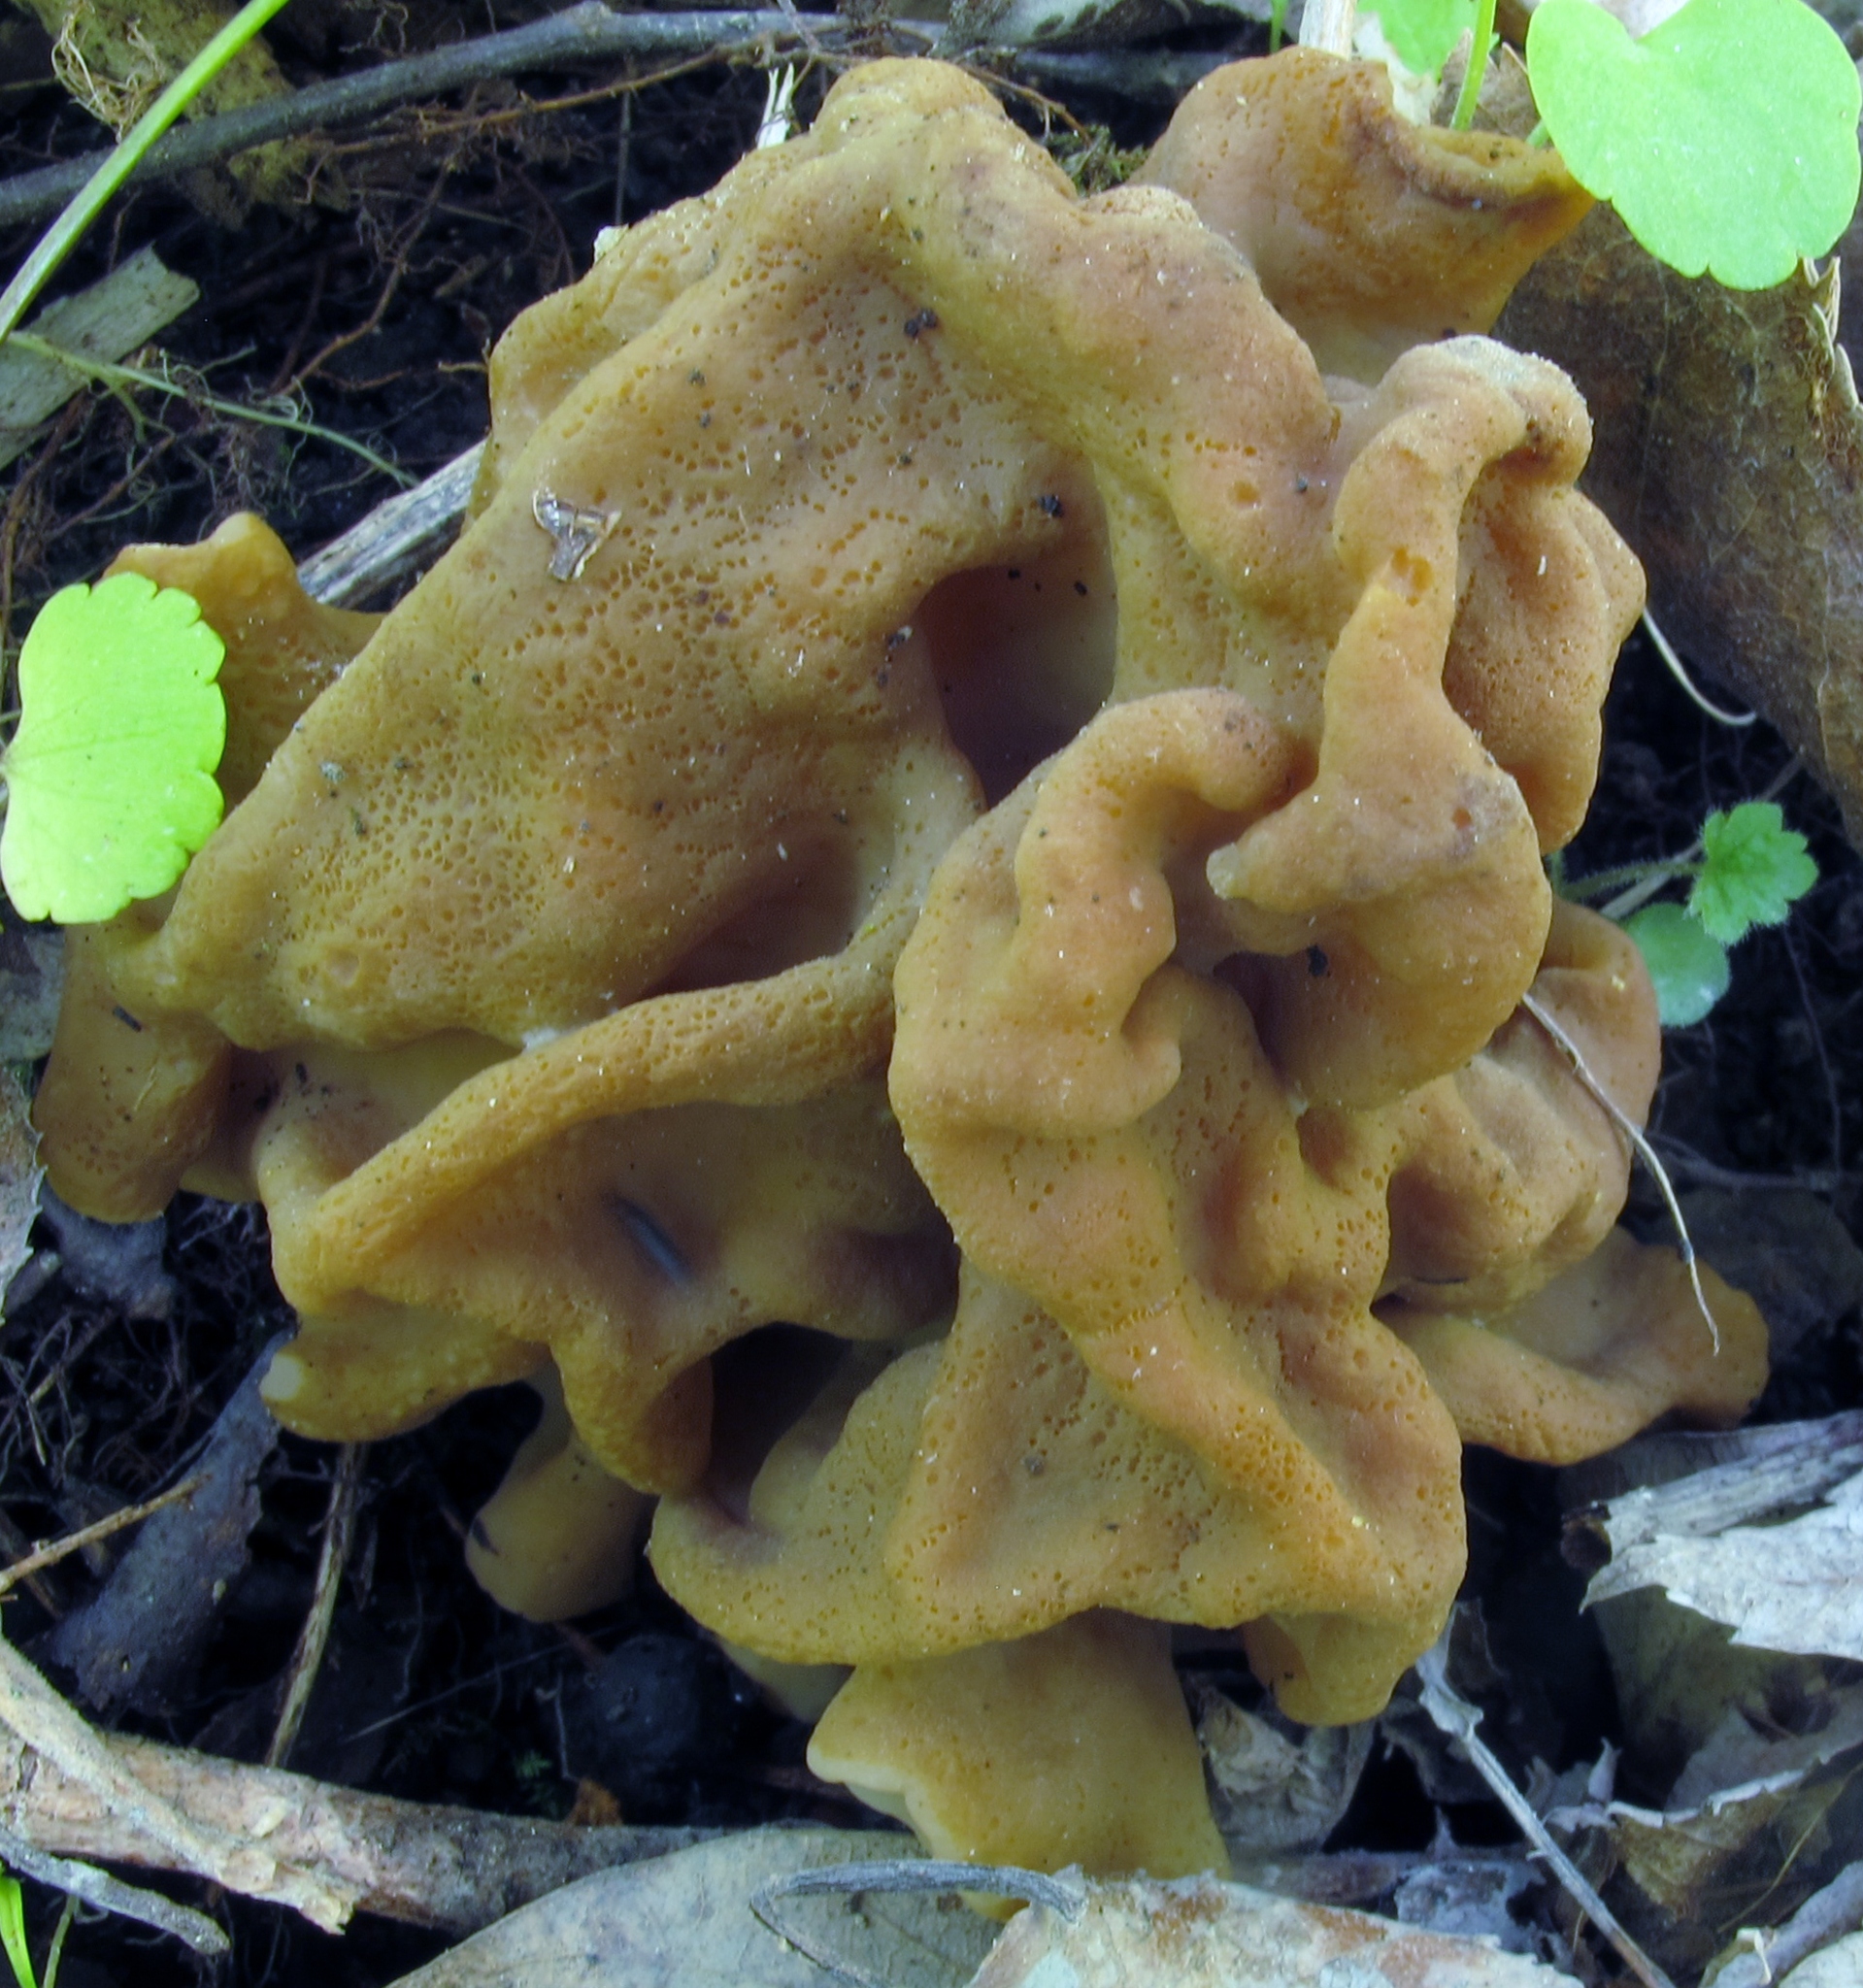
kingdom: Fungi
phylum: Ascomycota
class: Pezizomycetes
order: Pezizales
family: Discinaceae
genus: Gyromitra
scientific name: Gyromitra korfii
